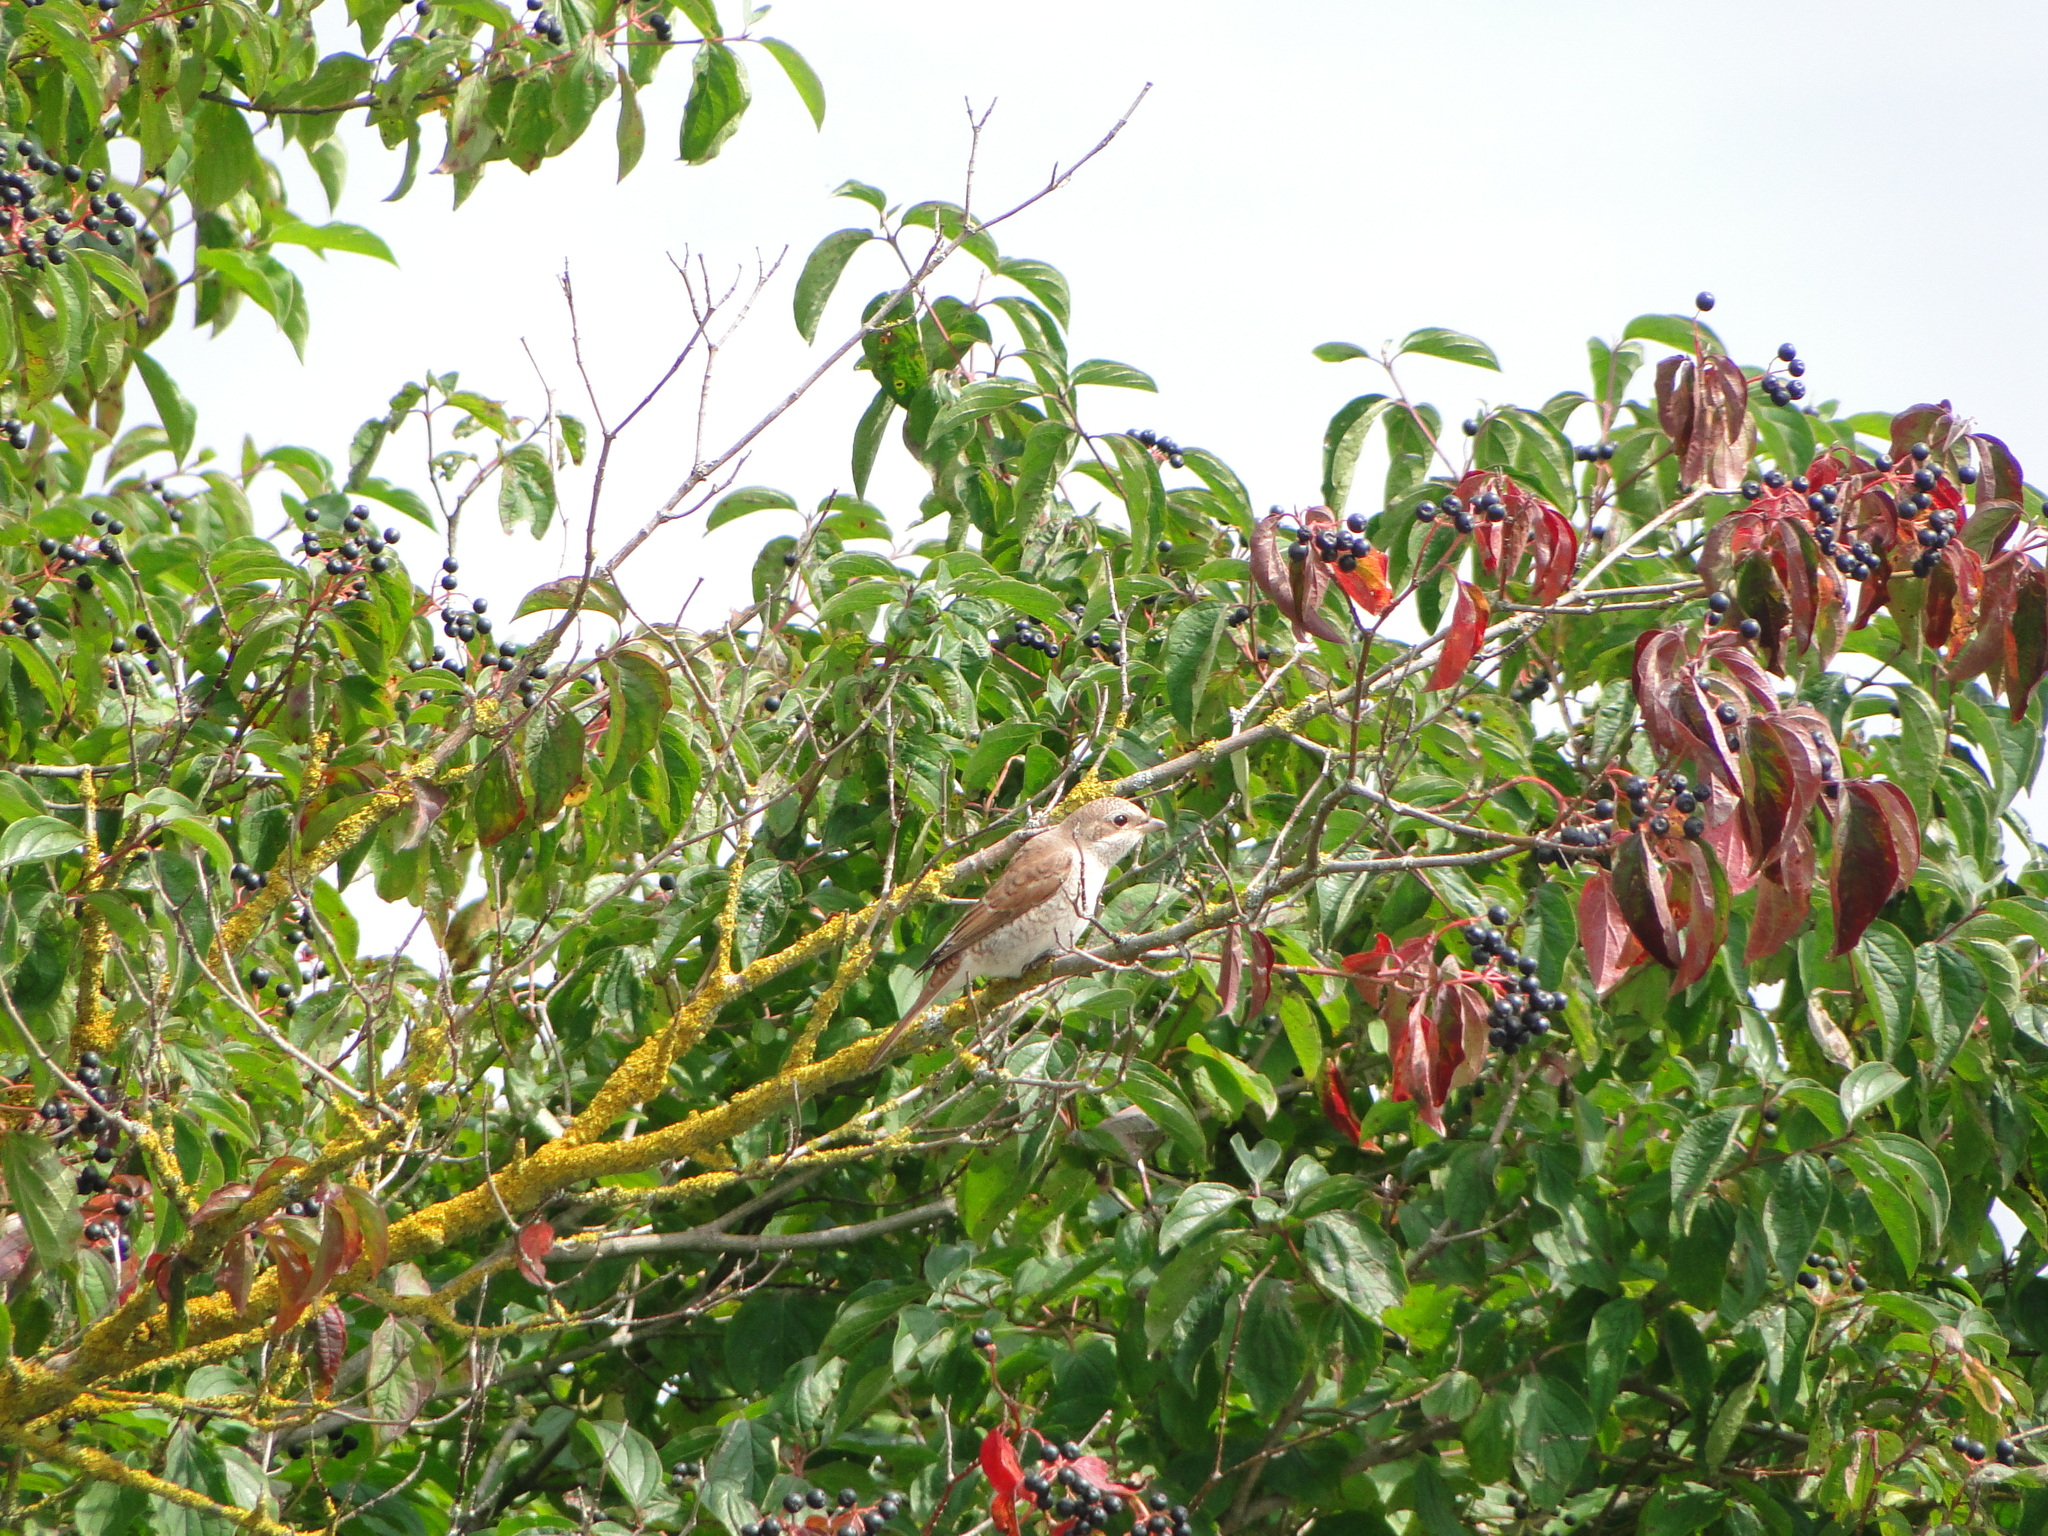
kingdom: Animalia
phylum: Chordata
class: Aves
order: Passeriformes
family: Laniidae
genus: Lanius
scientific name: Lanius collurio
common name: Red-backed shrike
